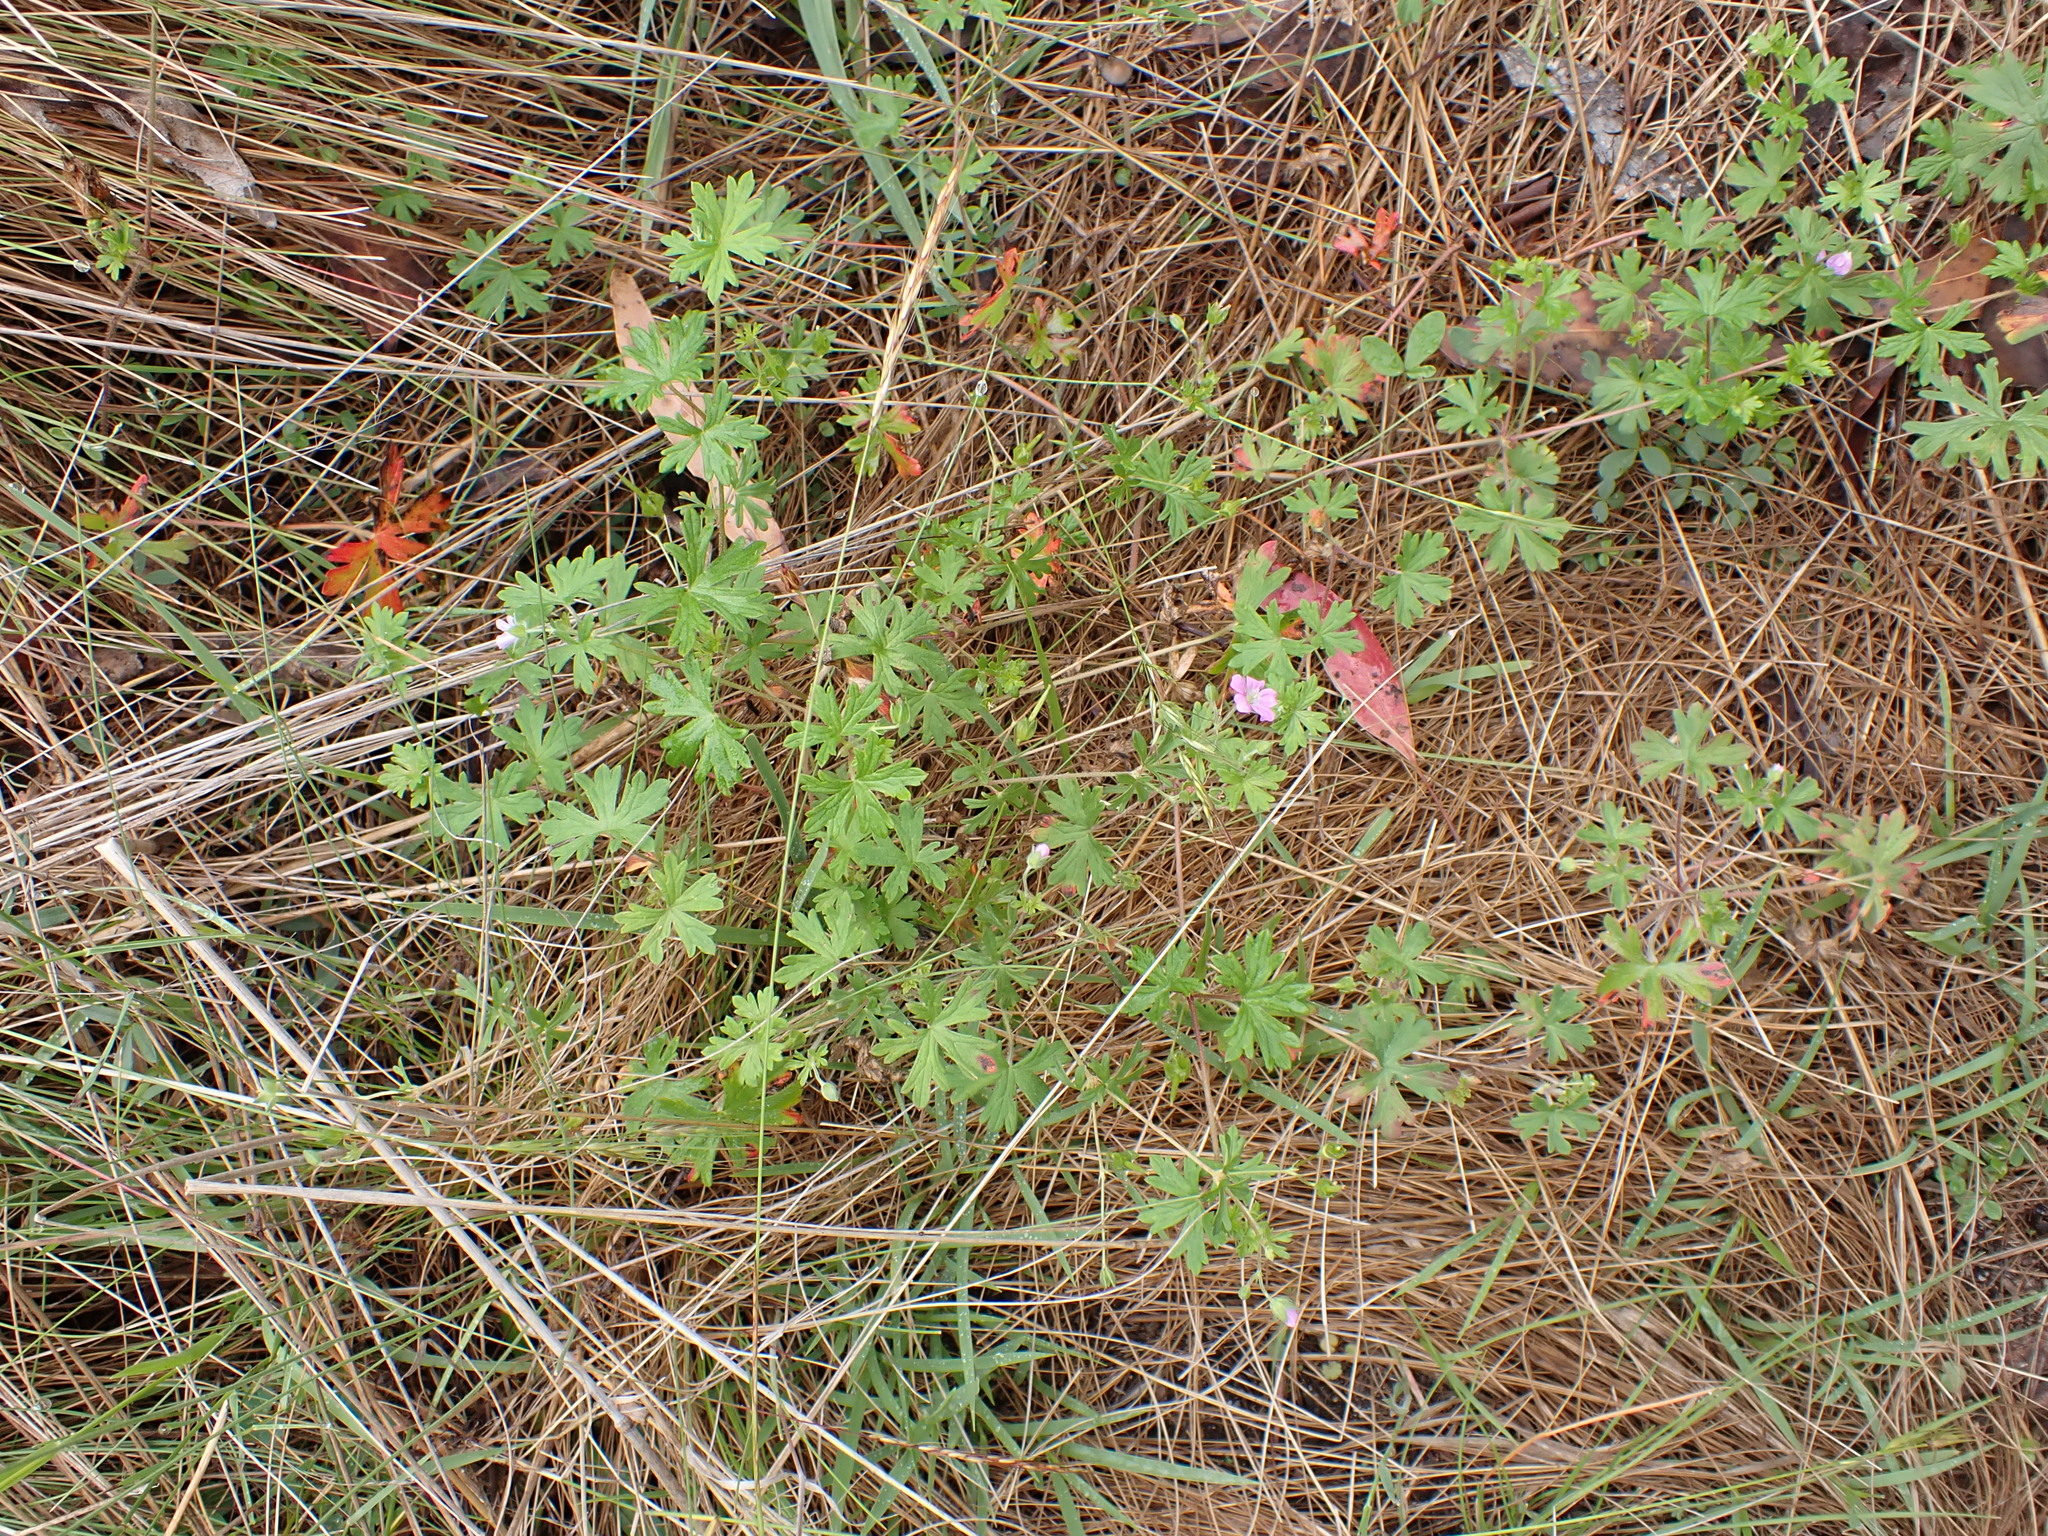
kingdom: Plantae
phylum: Tracheophyta
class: Magnoliopsida
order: Geraniales
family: Geraniaceae
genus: Geranium
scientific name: Geranium gardneri
